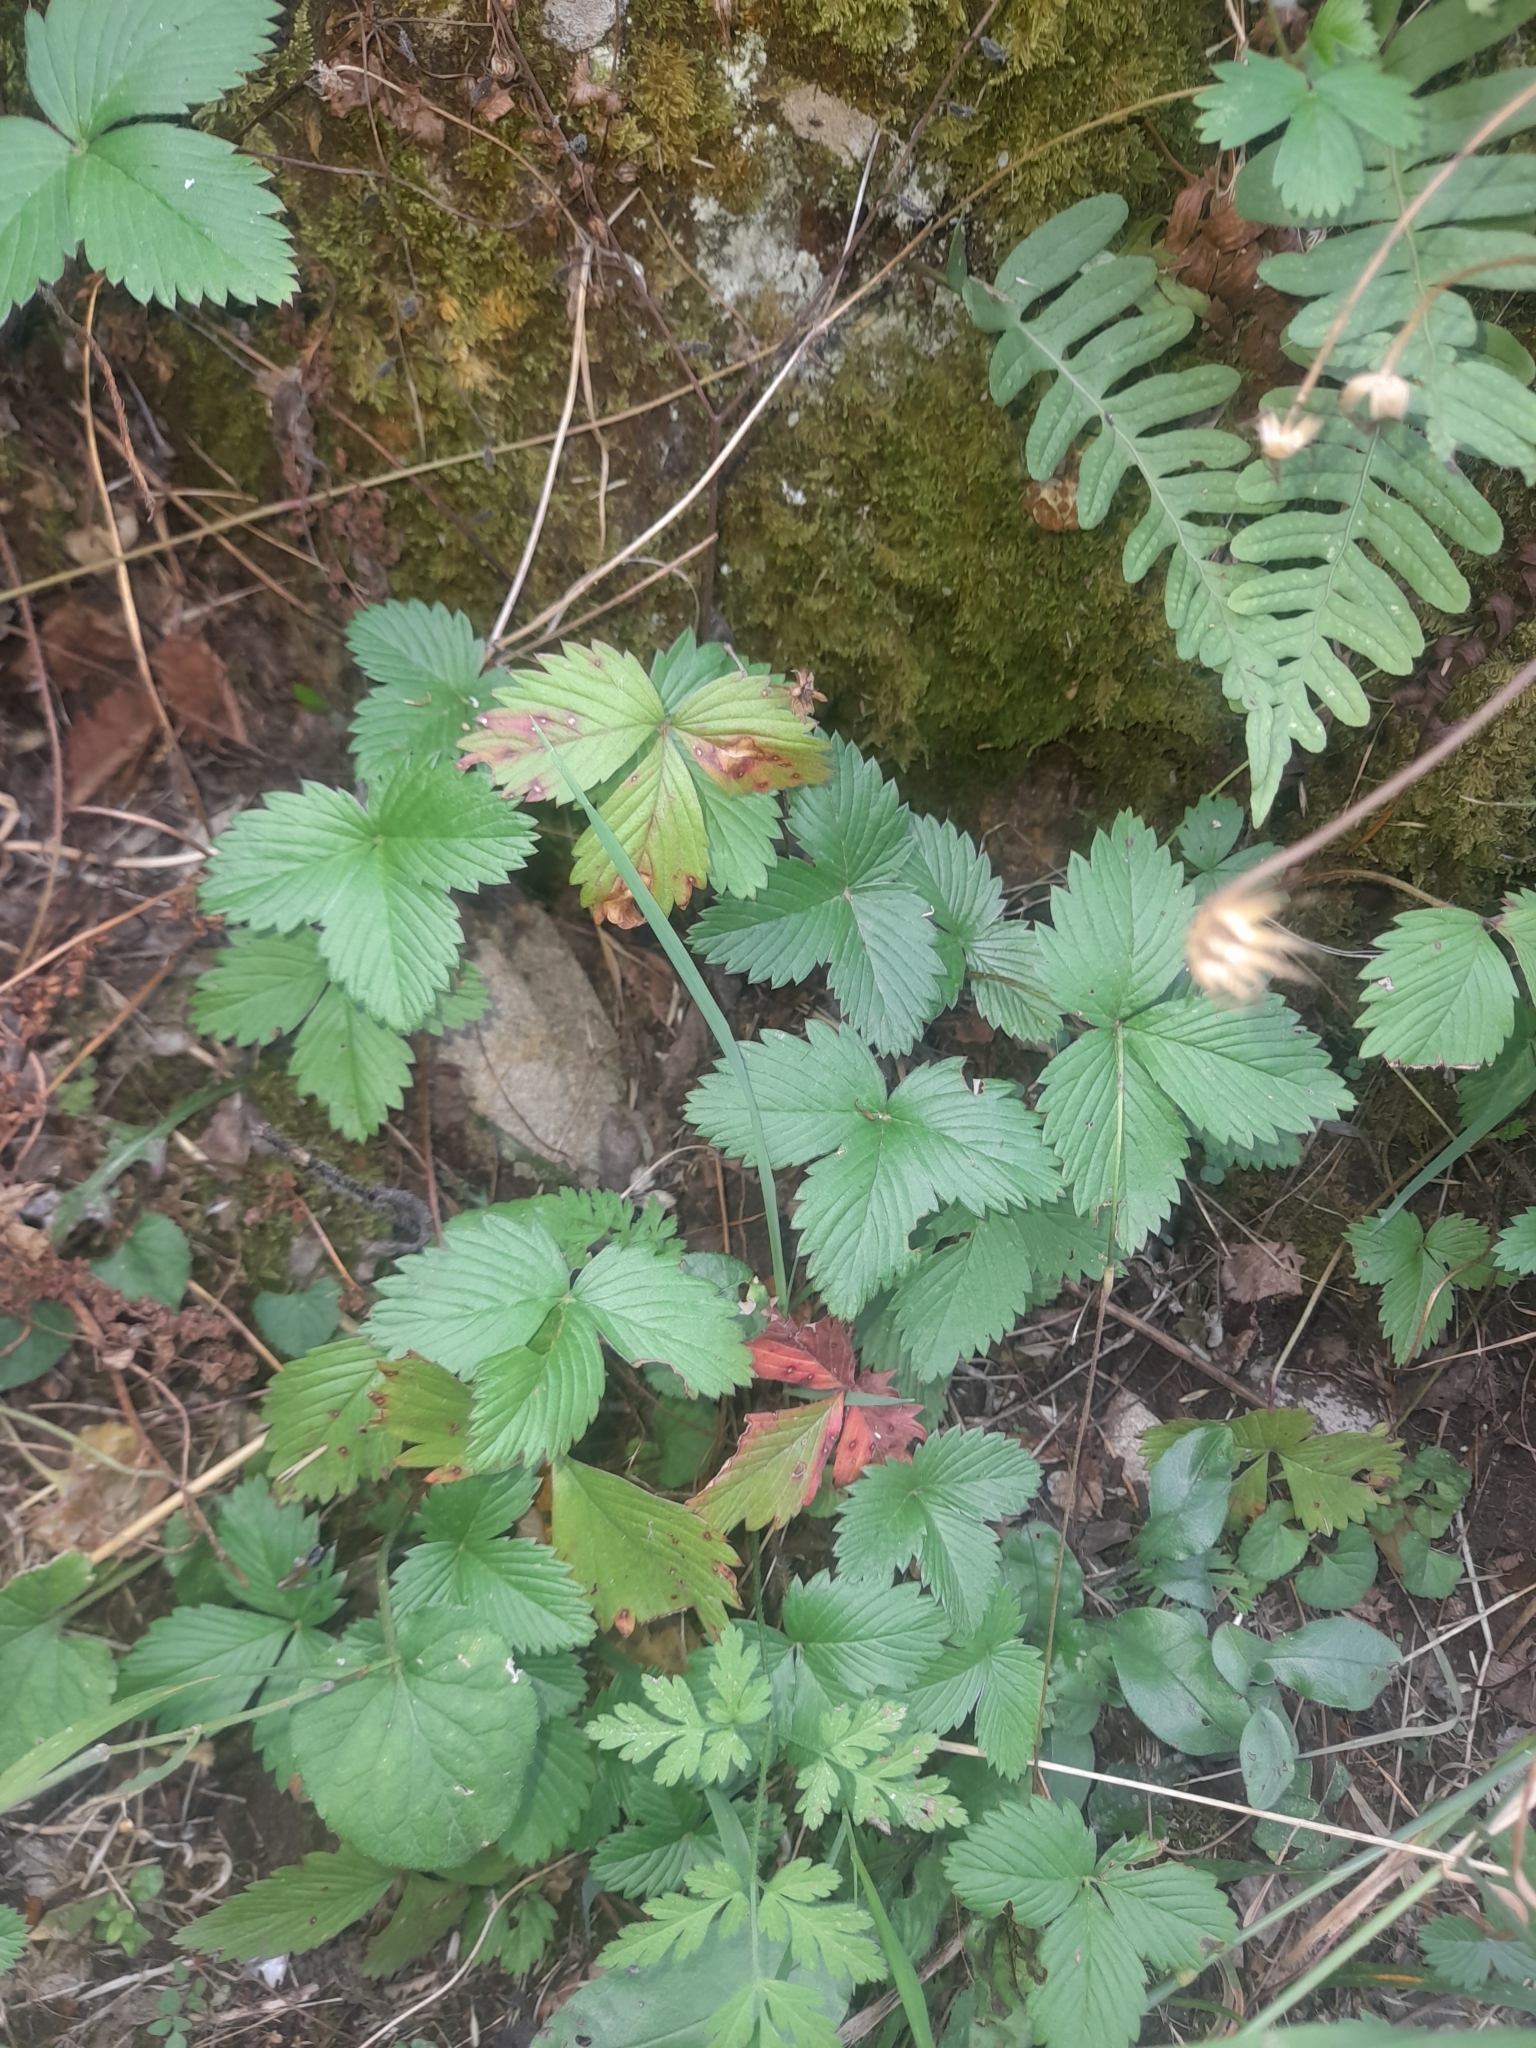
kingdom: Plantae
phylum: Tracheophyta
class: Magnoliopsida
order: Rosales
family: Rosaceae
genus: Fragaria
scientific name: Fragaria vesca
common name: Wild strawberry
